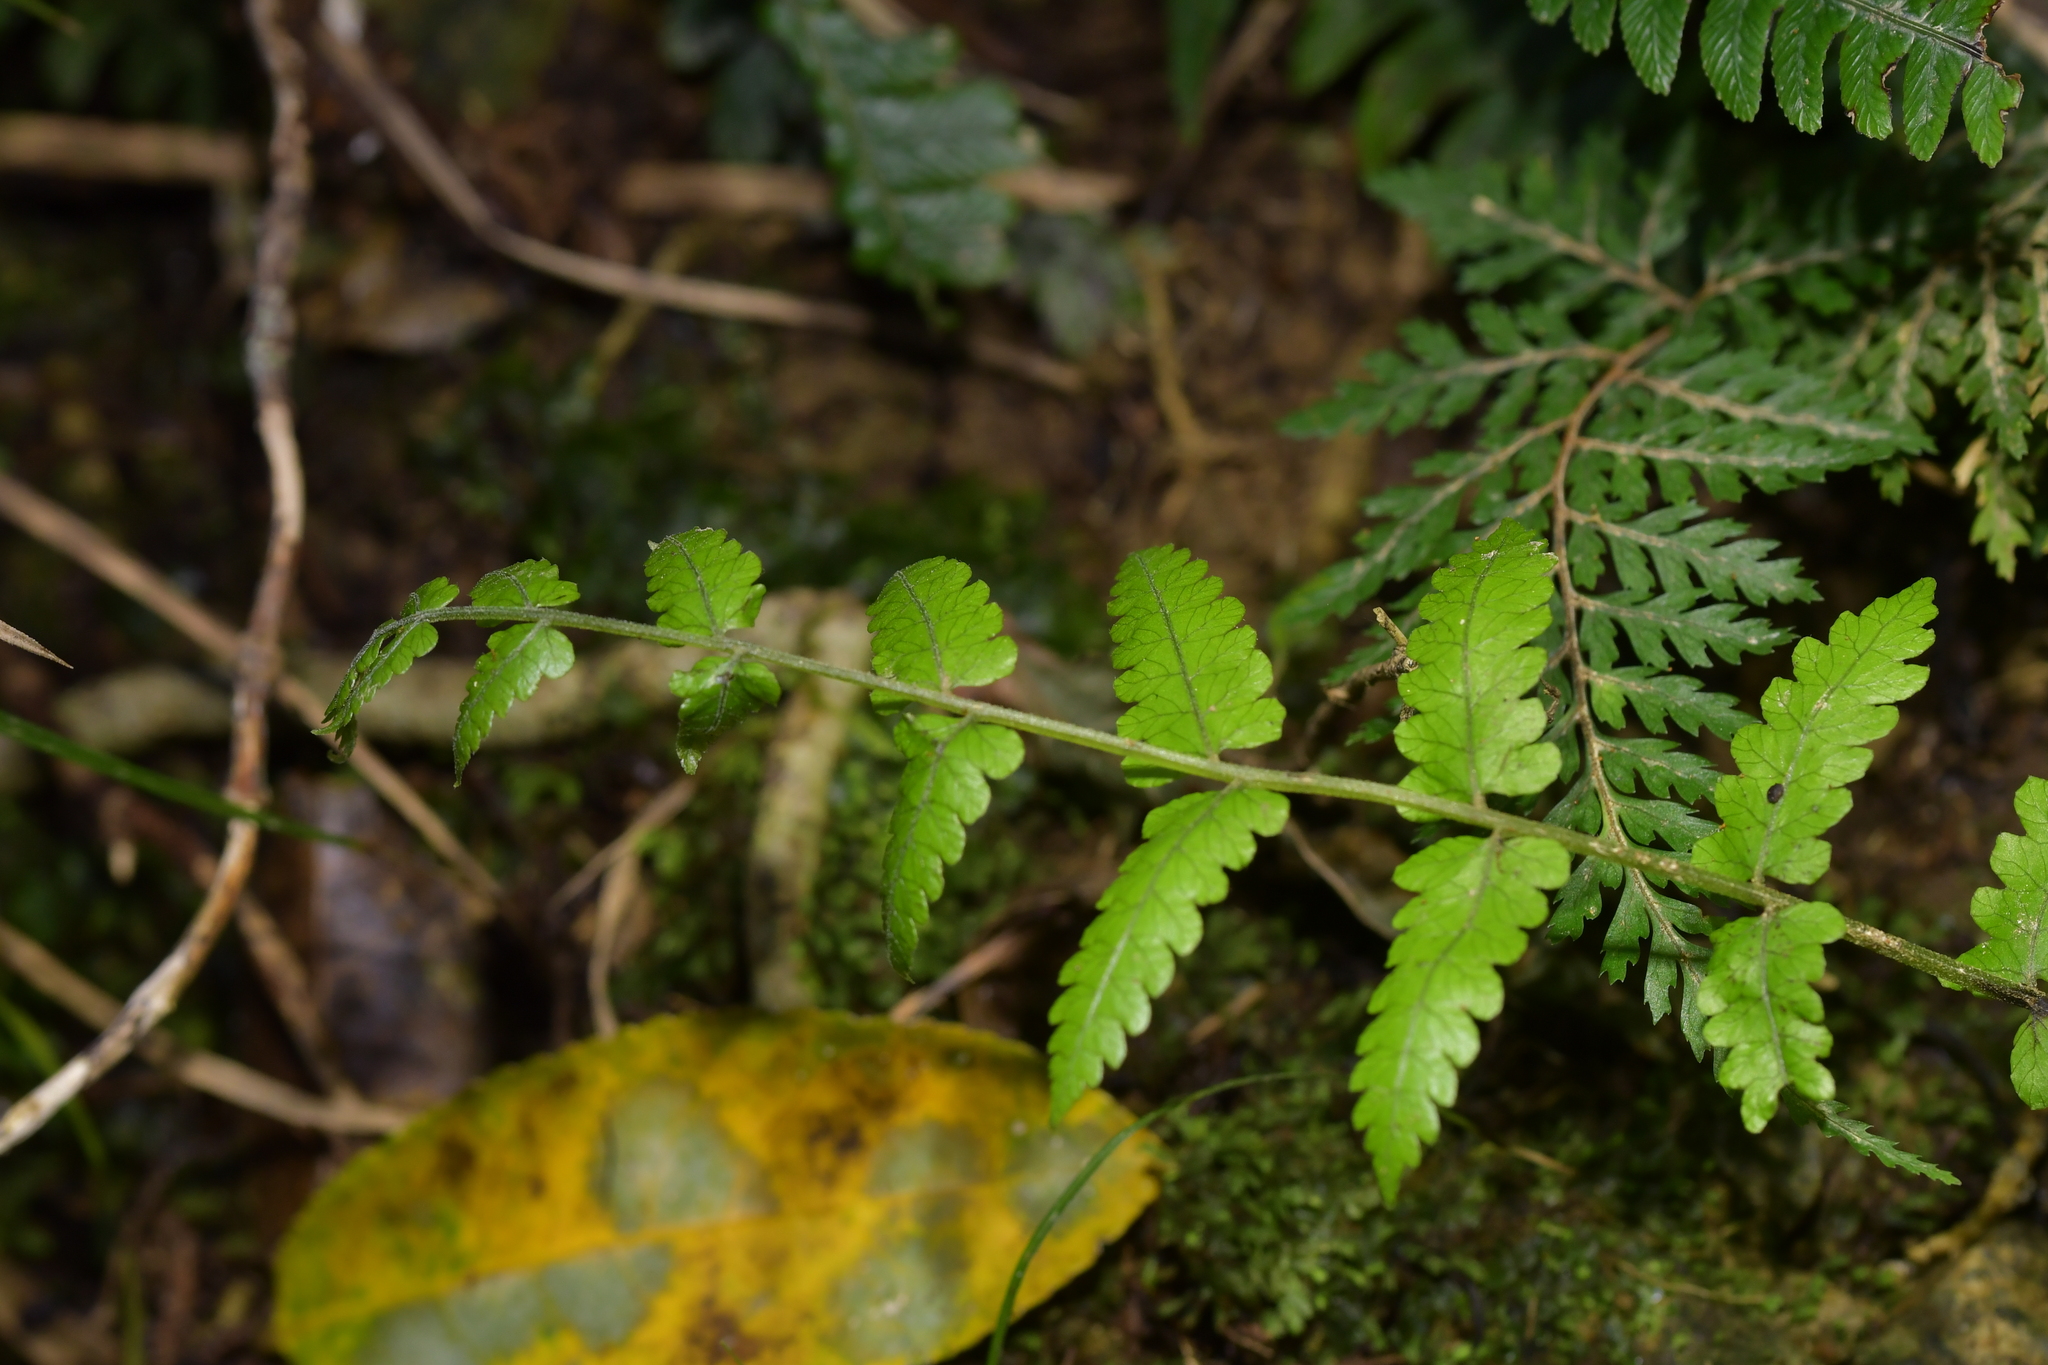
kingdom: Plantae
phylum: Tracheophyta
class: Polypodiopsida
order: Polypodiales
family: Thelypteridaceae
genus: Pakau
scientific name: Pakau pennigera
